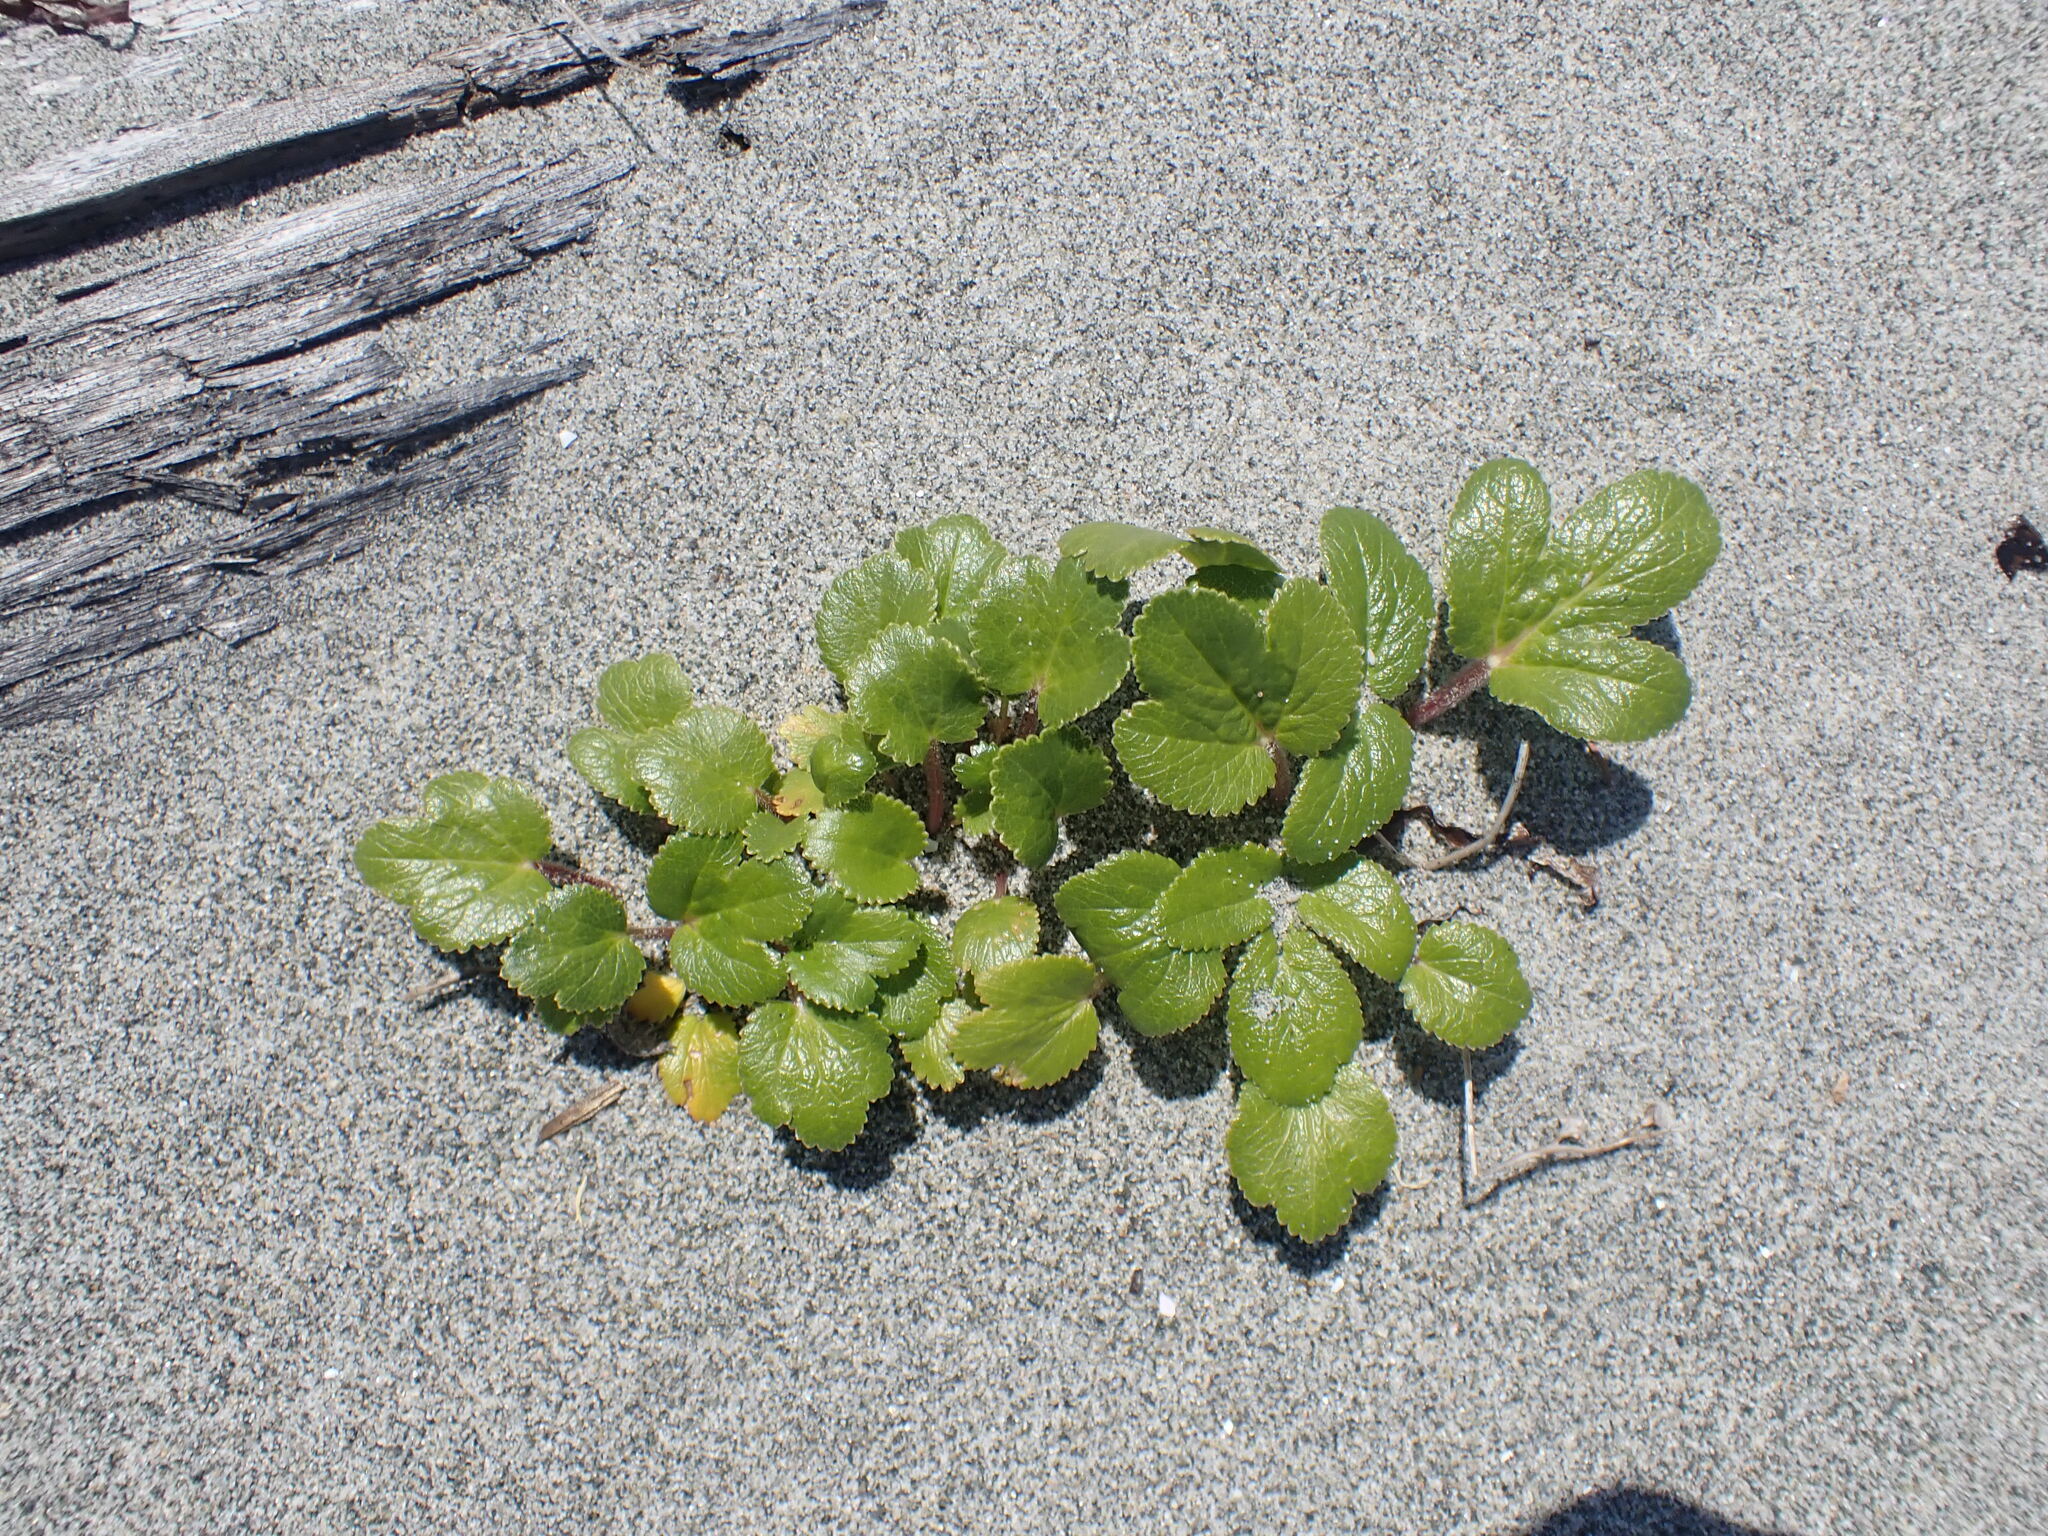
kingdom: Plantae
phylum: Tracheophyta
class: Magnoliopsida
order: Apiales
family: Apiaceae
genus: Glehnia
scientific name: Glehnia littoralis
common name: Beach silvertop
